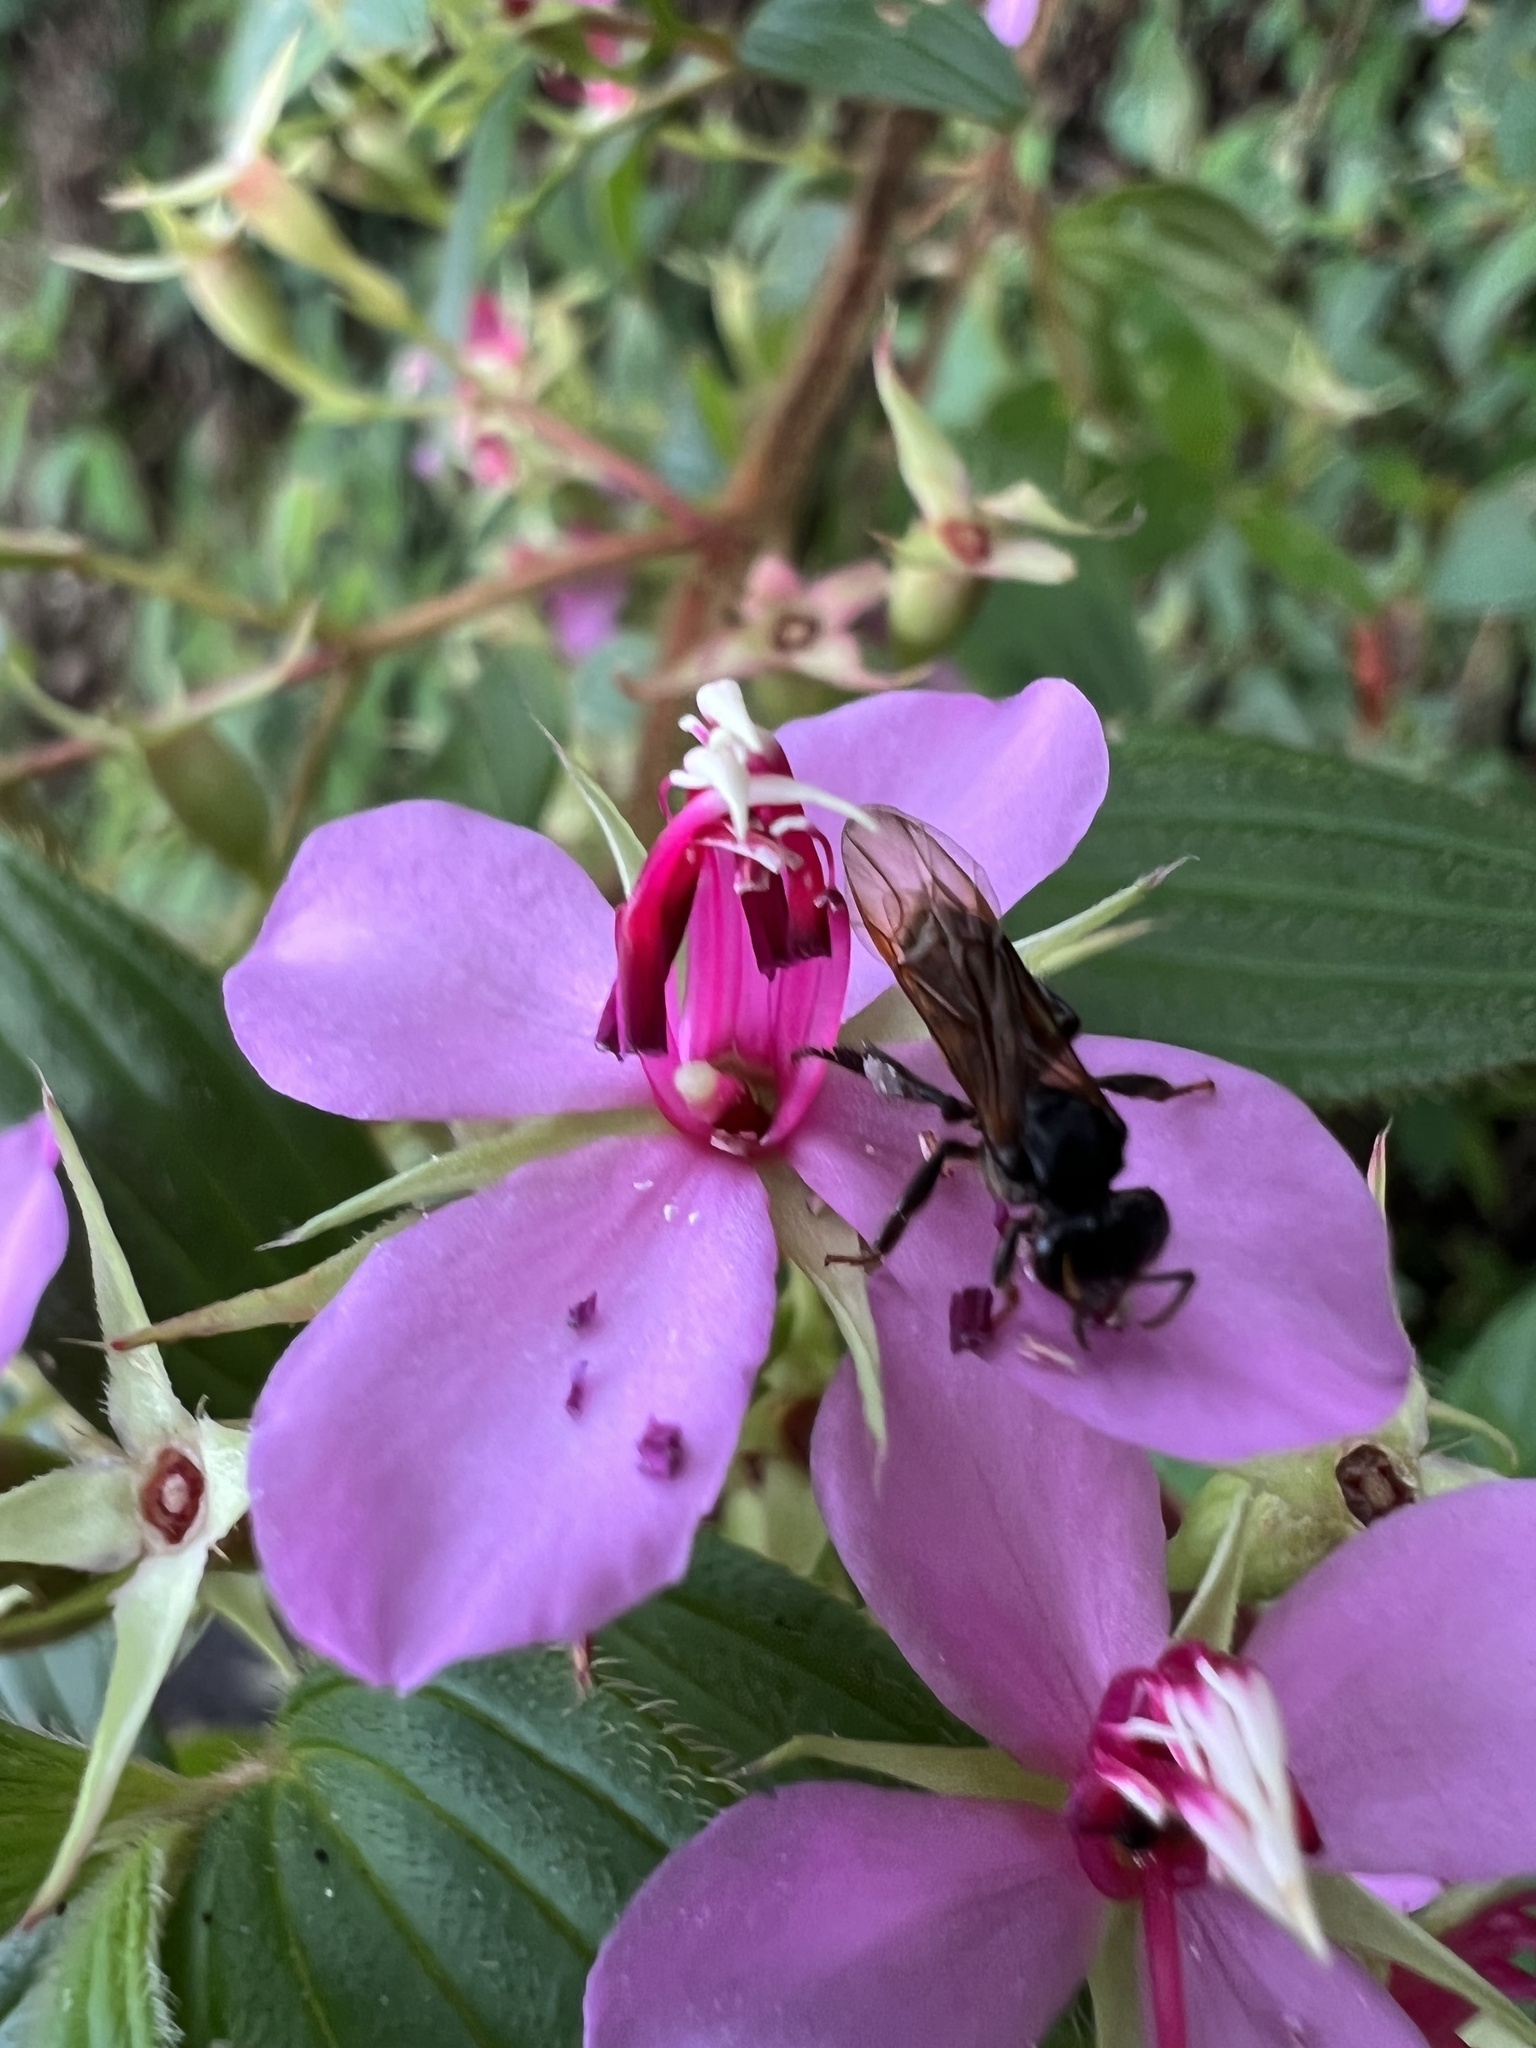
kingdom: Animalia
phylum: Arthropoda
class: Insecta
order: Hymenoptera
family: Apidae
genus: Trigona
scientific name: Trigona fulviventris
